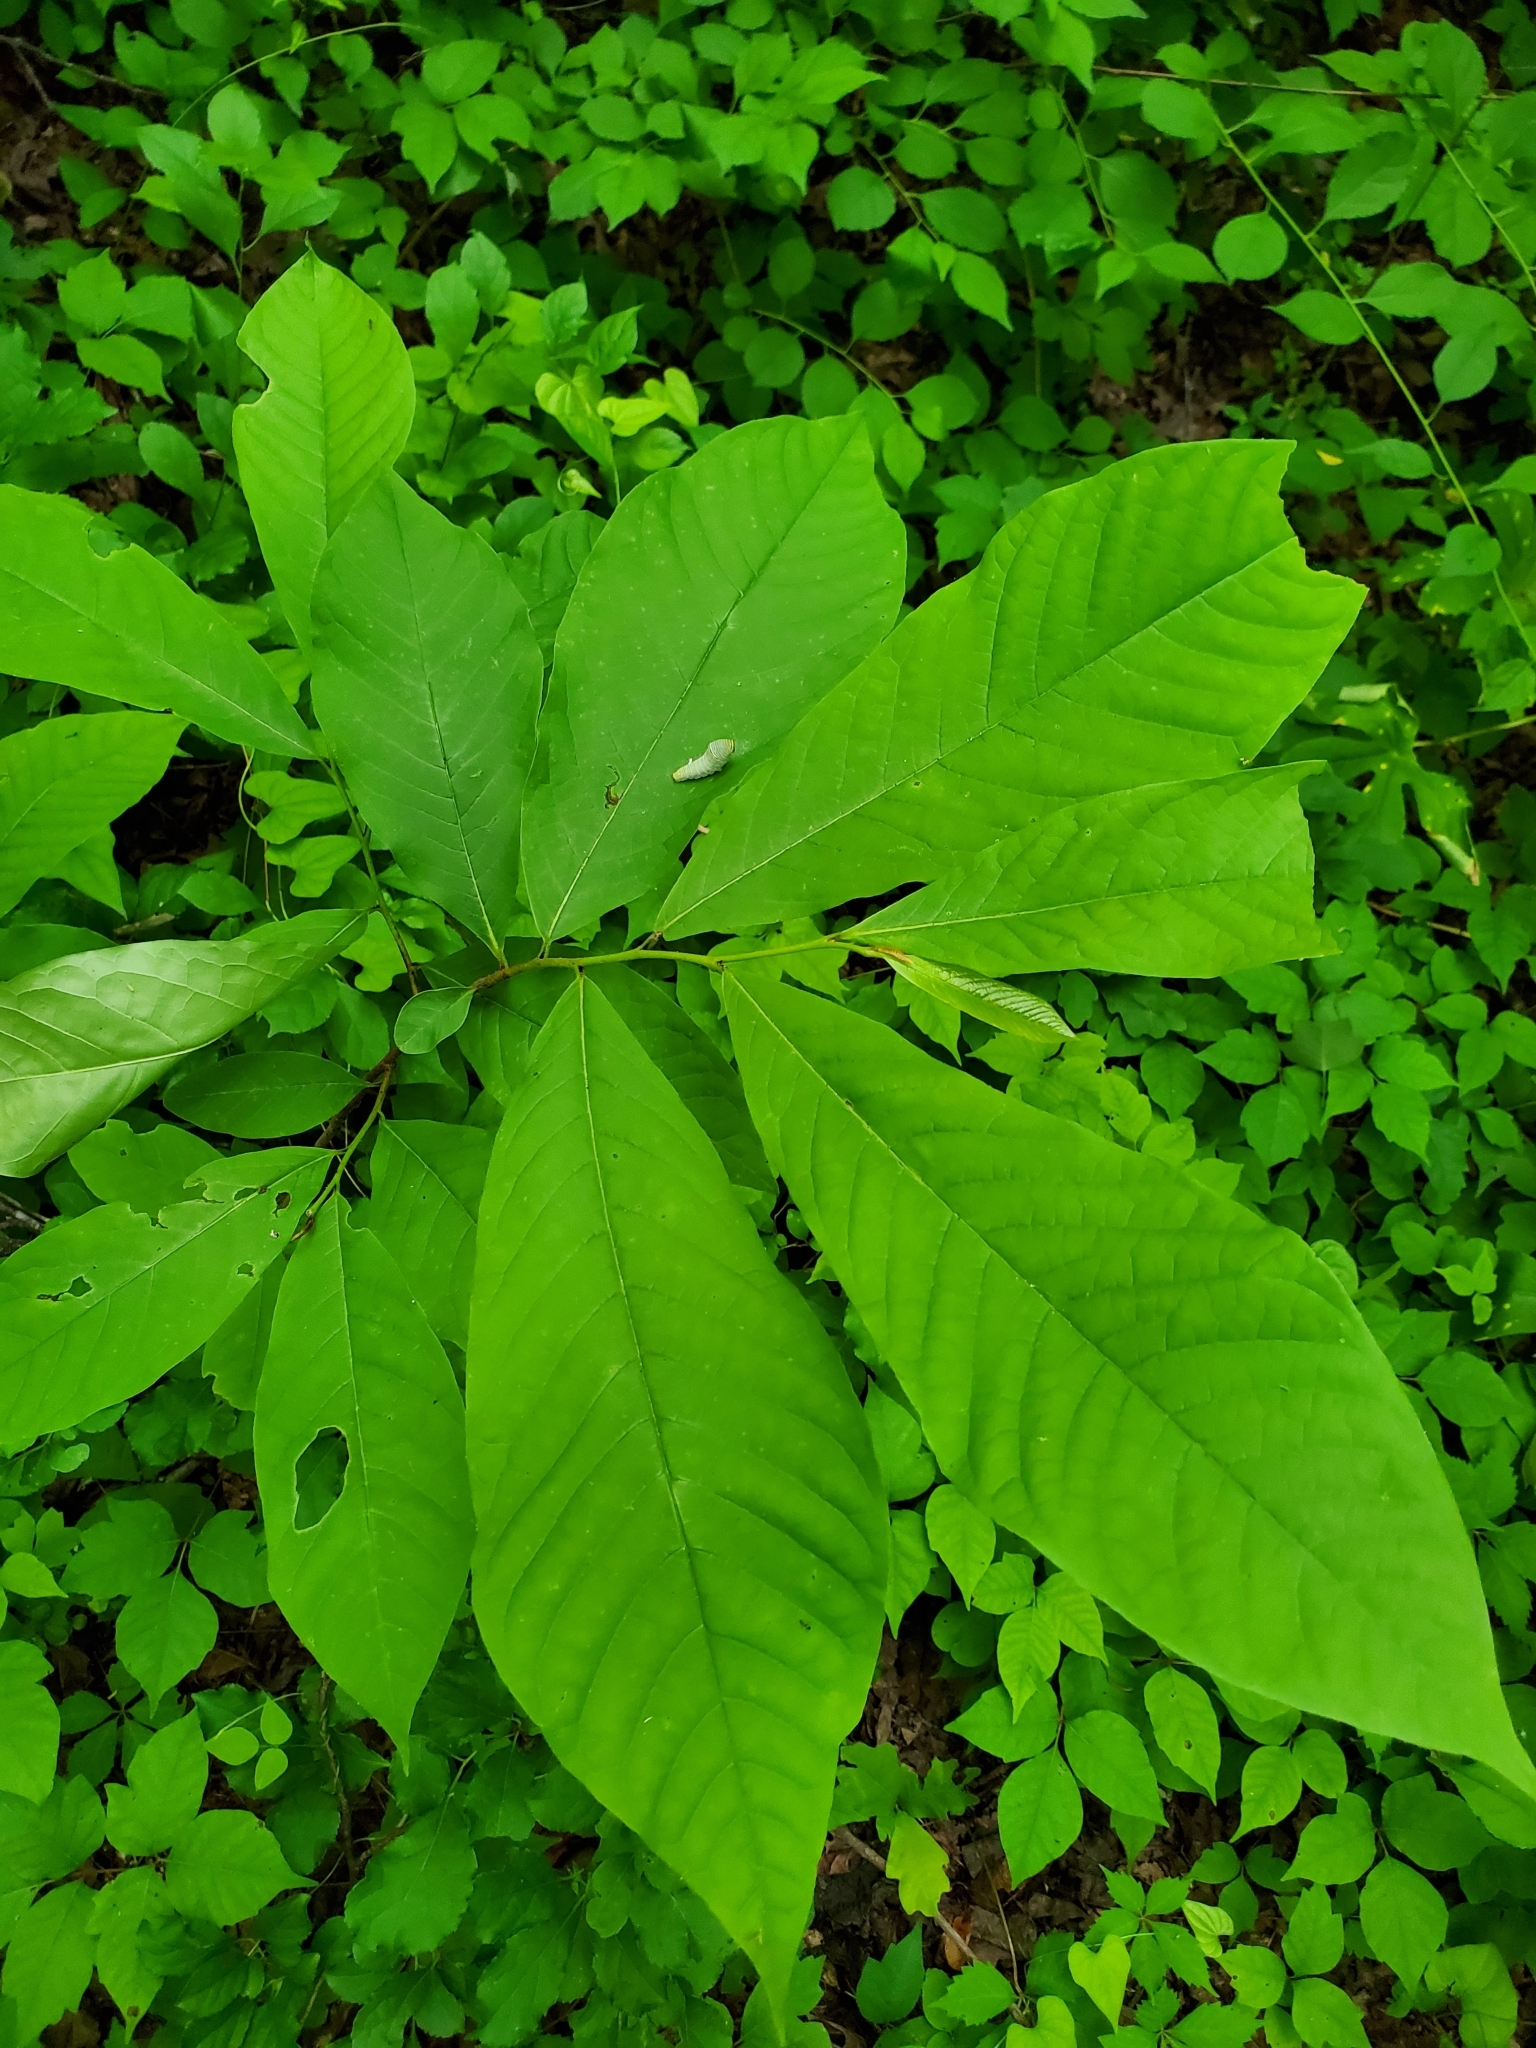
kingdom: Animalia
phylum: Arthropoda
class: Insecta
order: Lepidoptera
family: Papilionidae
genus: Protographium
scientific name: Protographium marcellus
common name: Zebra swallowtail
